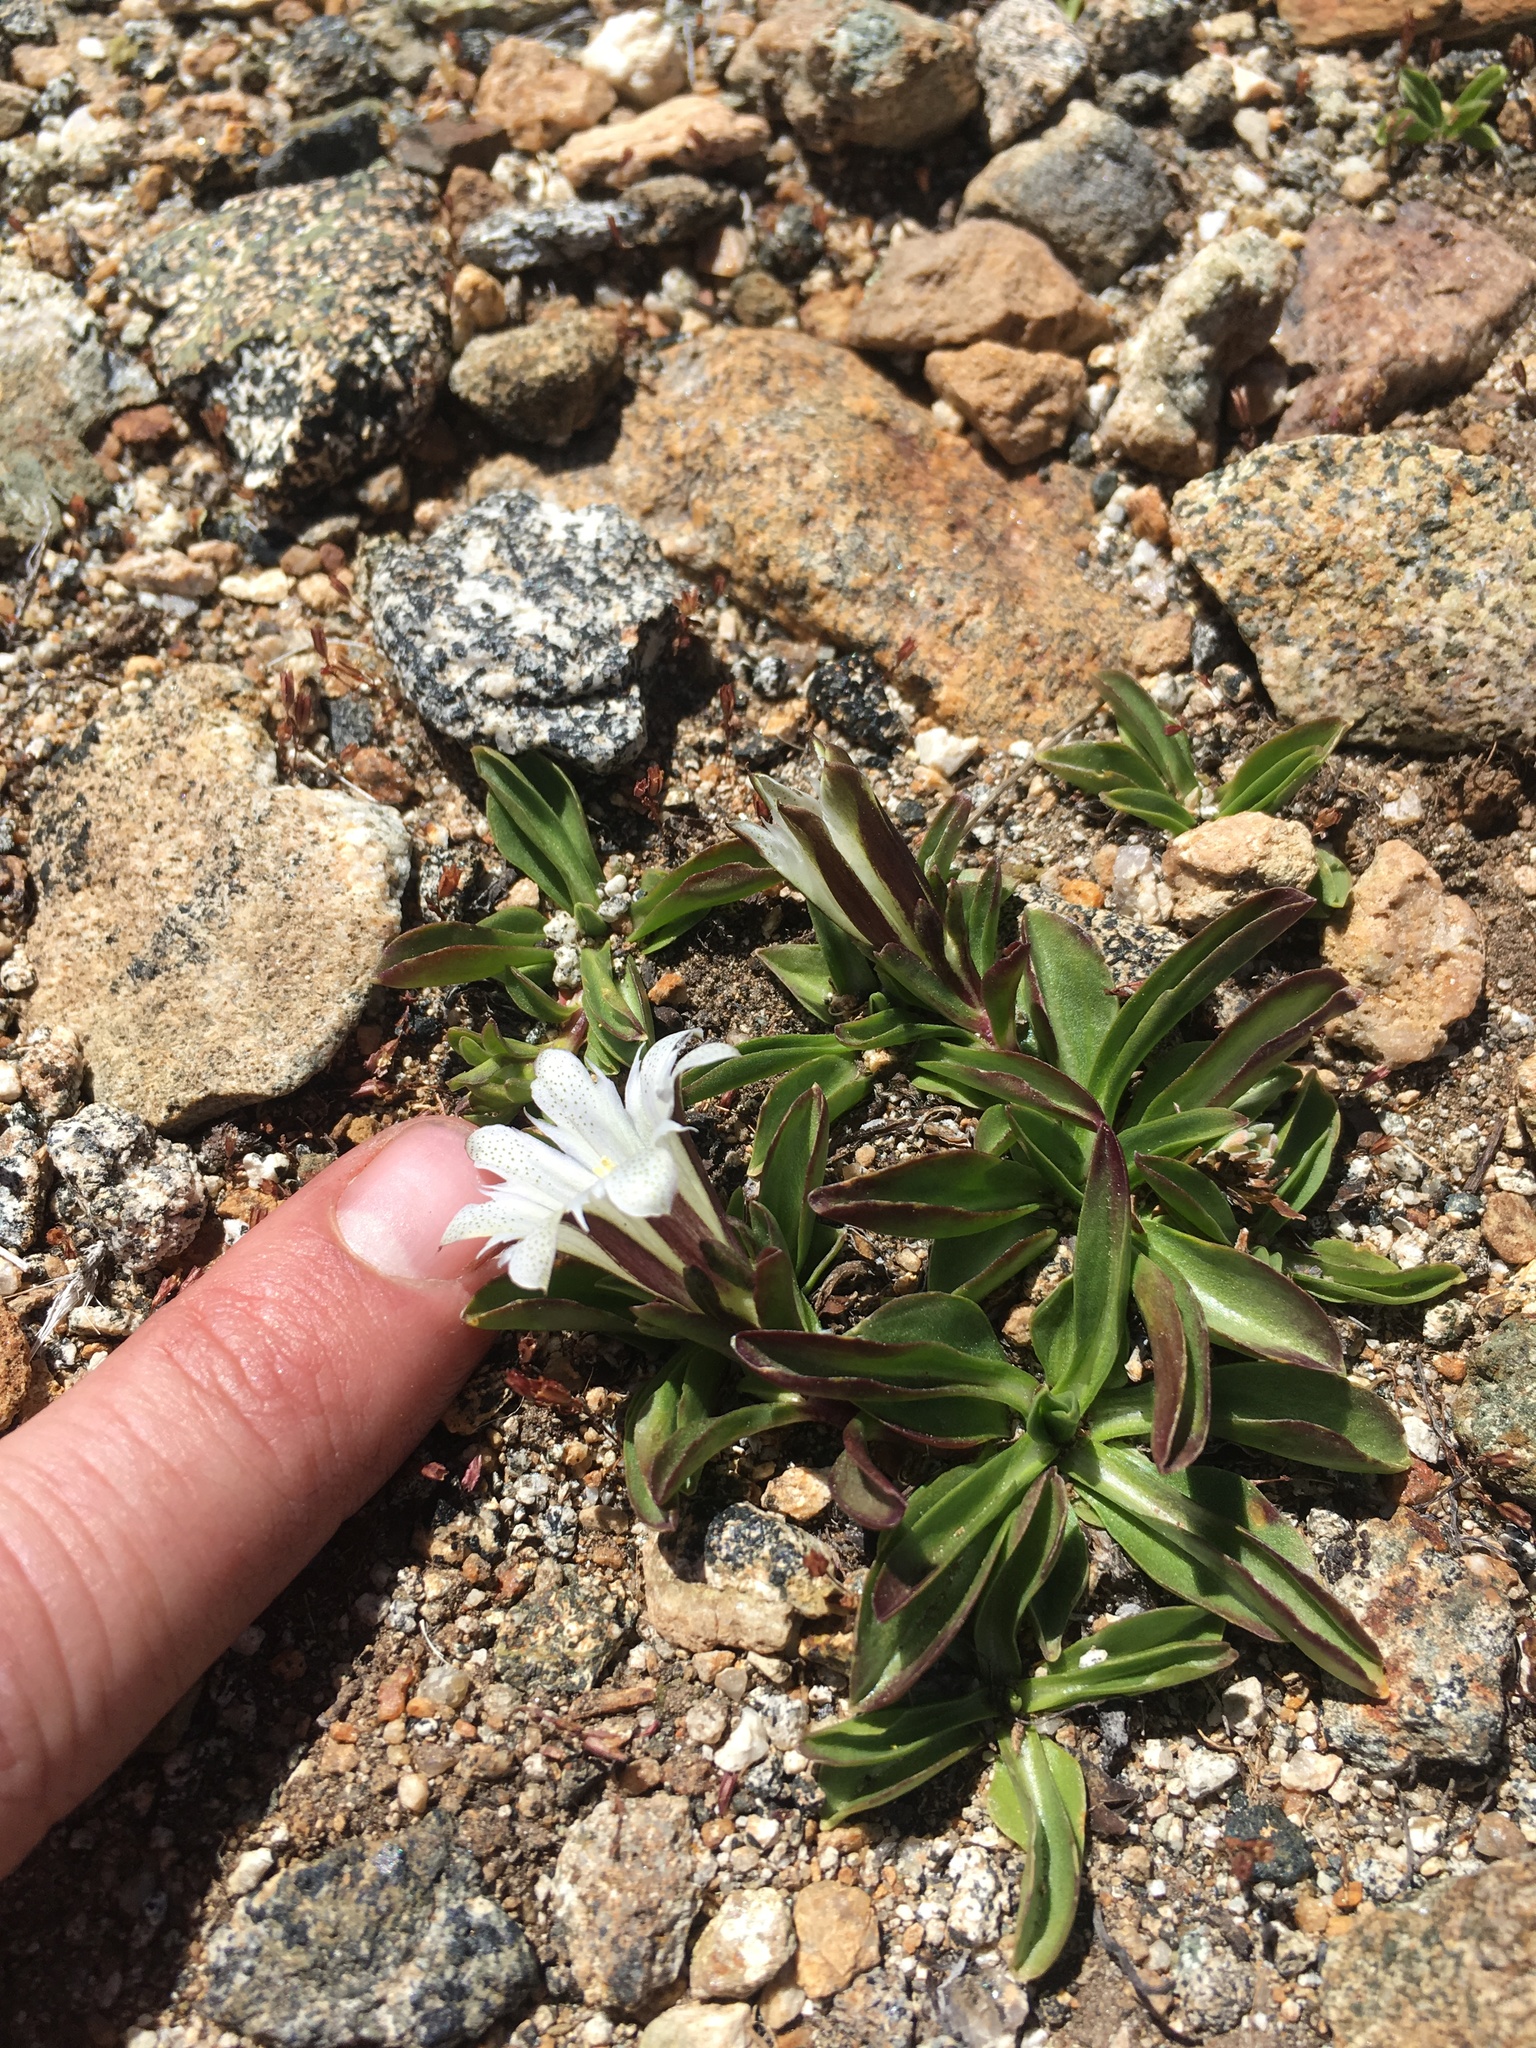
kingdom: Plantae
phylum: Tracheophyta
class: Magnoliopsida
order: Gentianales
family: Gentianaceae
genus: Gentiana
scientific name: Gentiana newberryi
